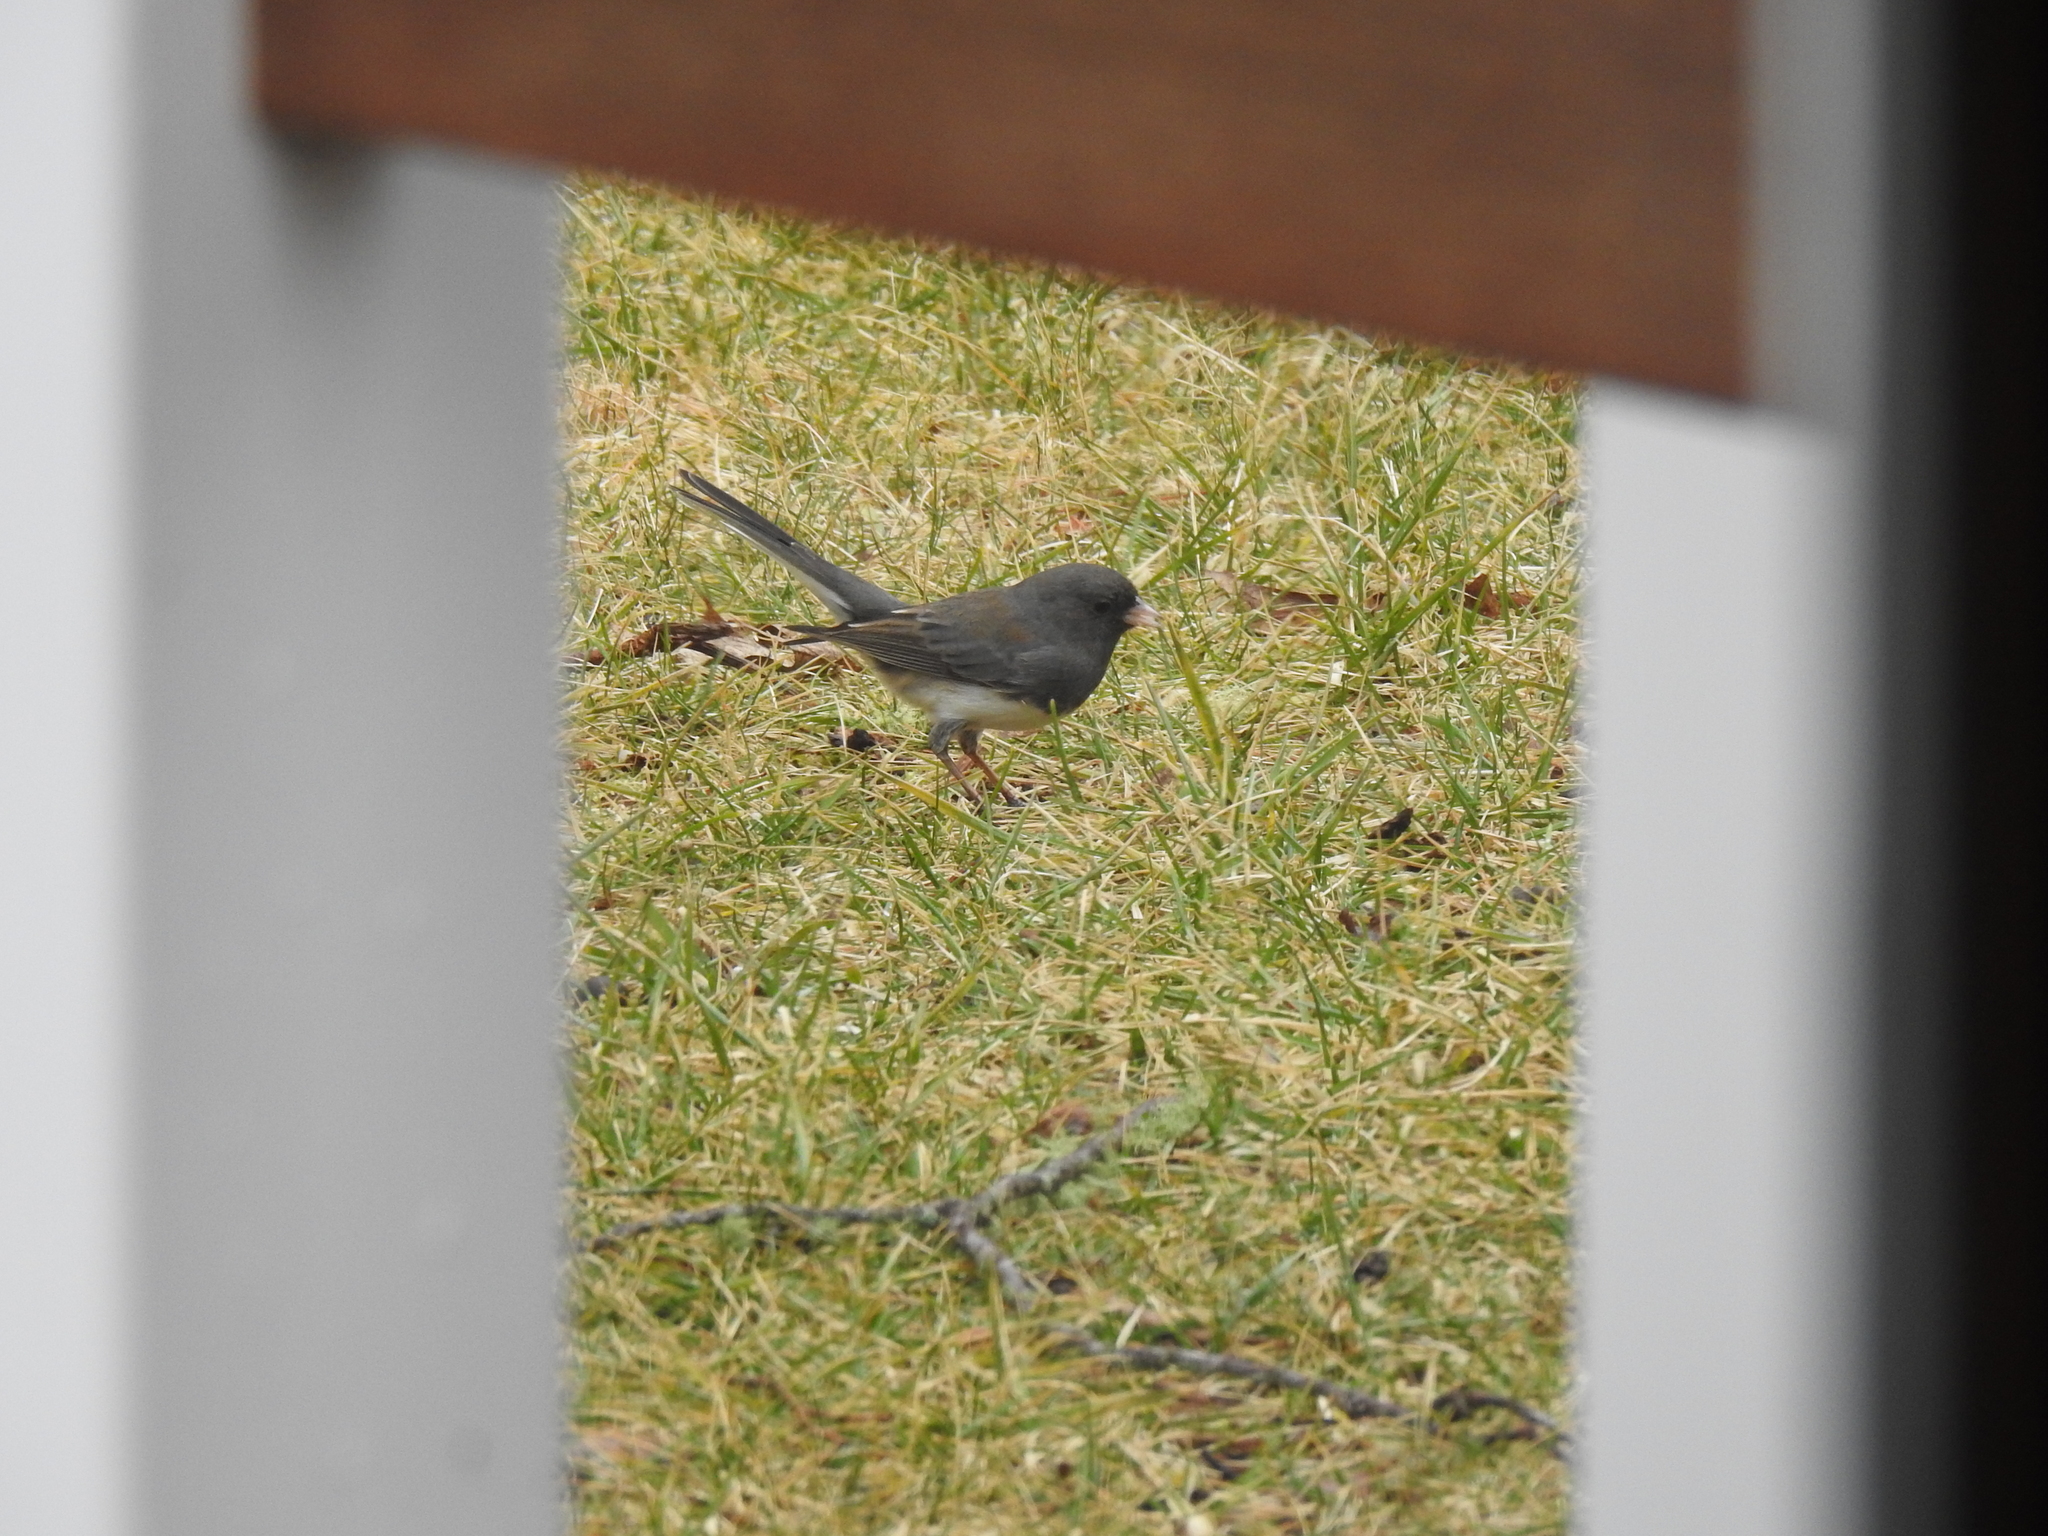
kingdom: Animalia
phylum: Chordata
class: Aves
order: Passeriformes
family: Passerellidae
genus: Junco
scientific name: Junco hyemalis
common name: Dark-eyed junco
